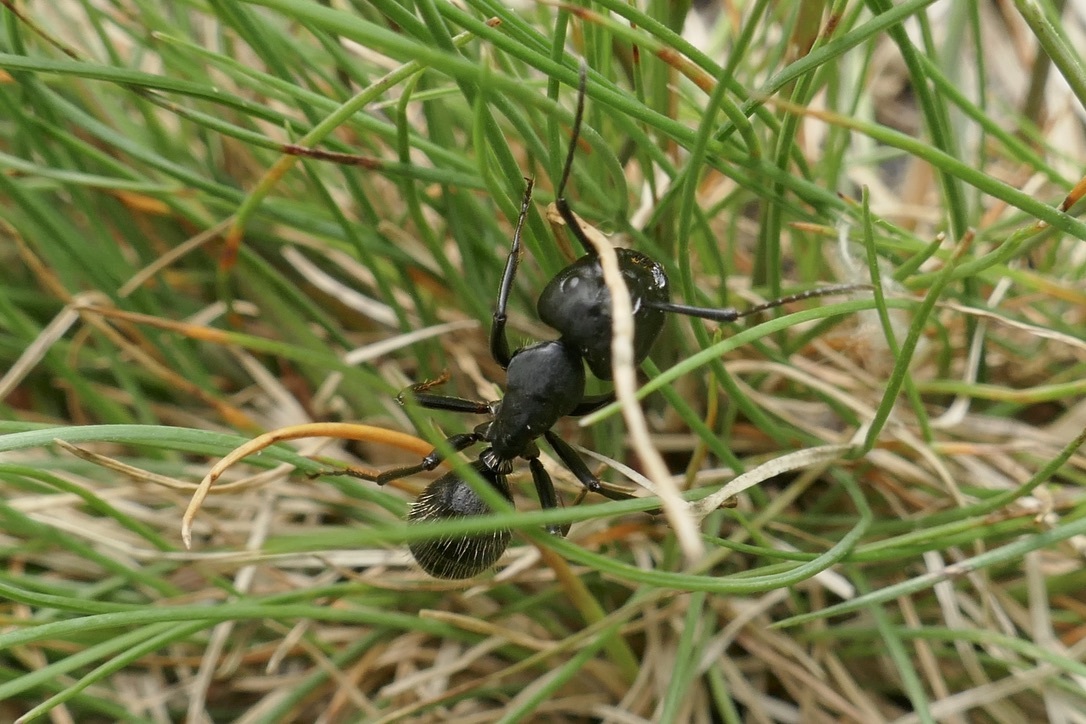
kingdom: Animalia
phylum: Arthropoda
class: Insecta
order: Hymenoptera
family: Formicidae
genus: Camponotus
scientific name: Camponotus vagus
